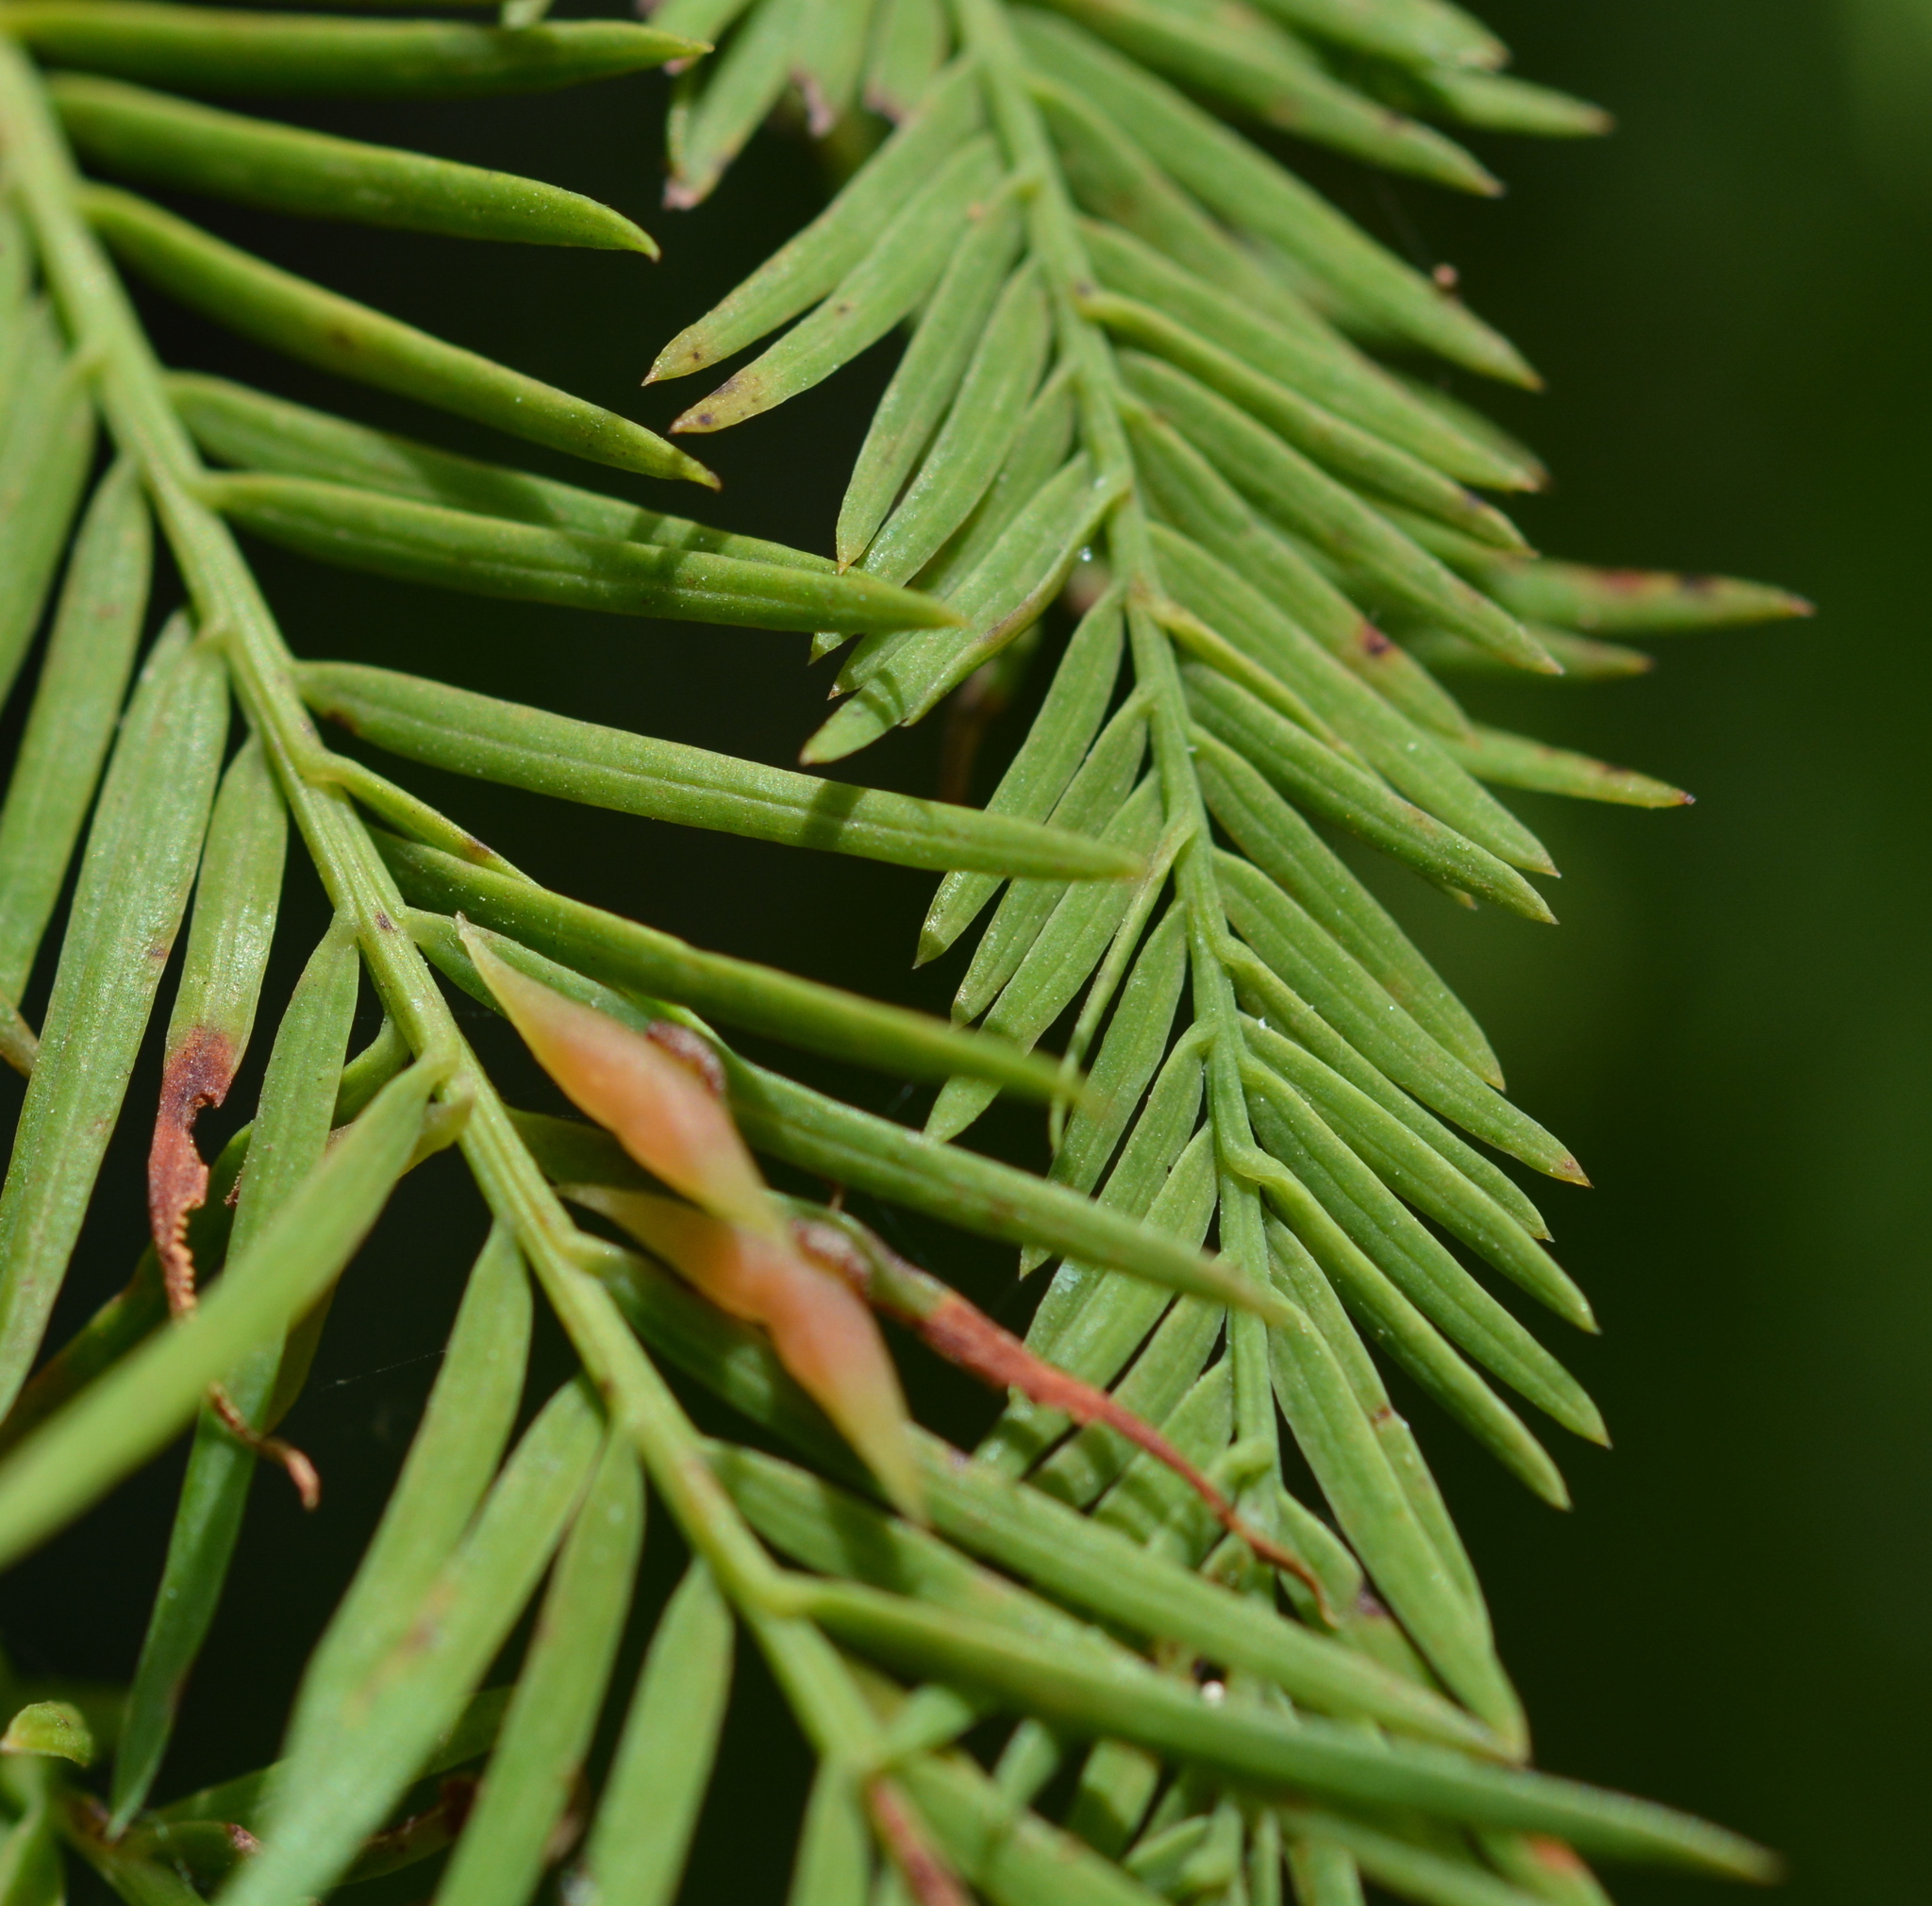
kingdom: Animalia
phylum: Arthropoda
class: Insecta
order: Diptera
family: Cecidomyiidae
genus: Taxodiomyia
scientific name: Taxodiomyia taxodii
